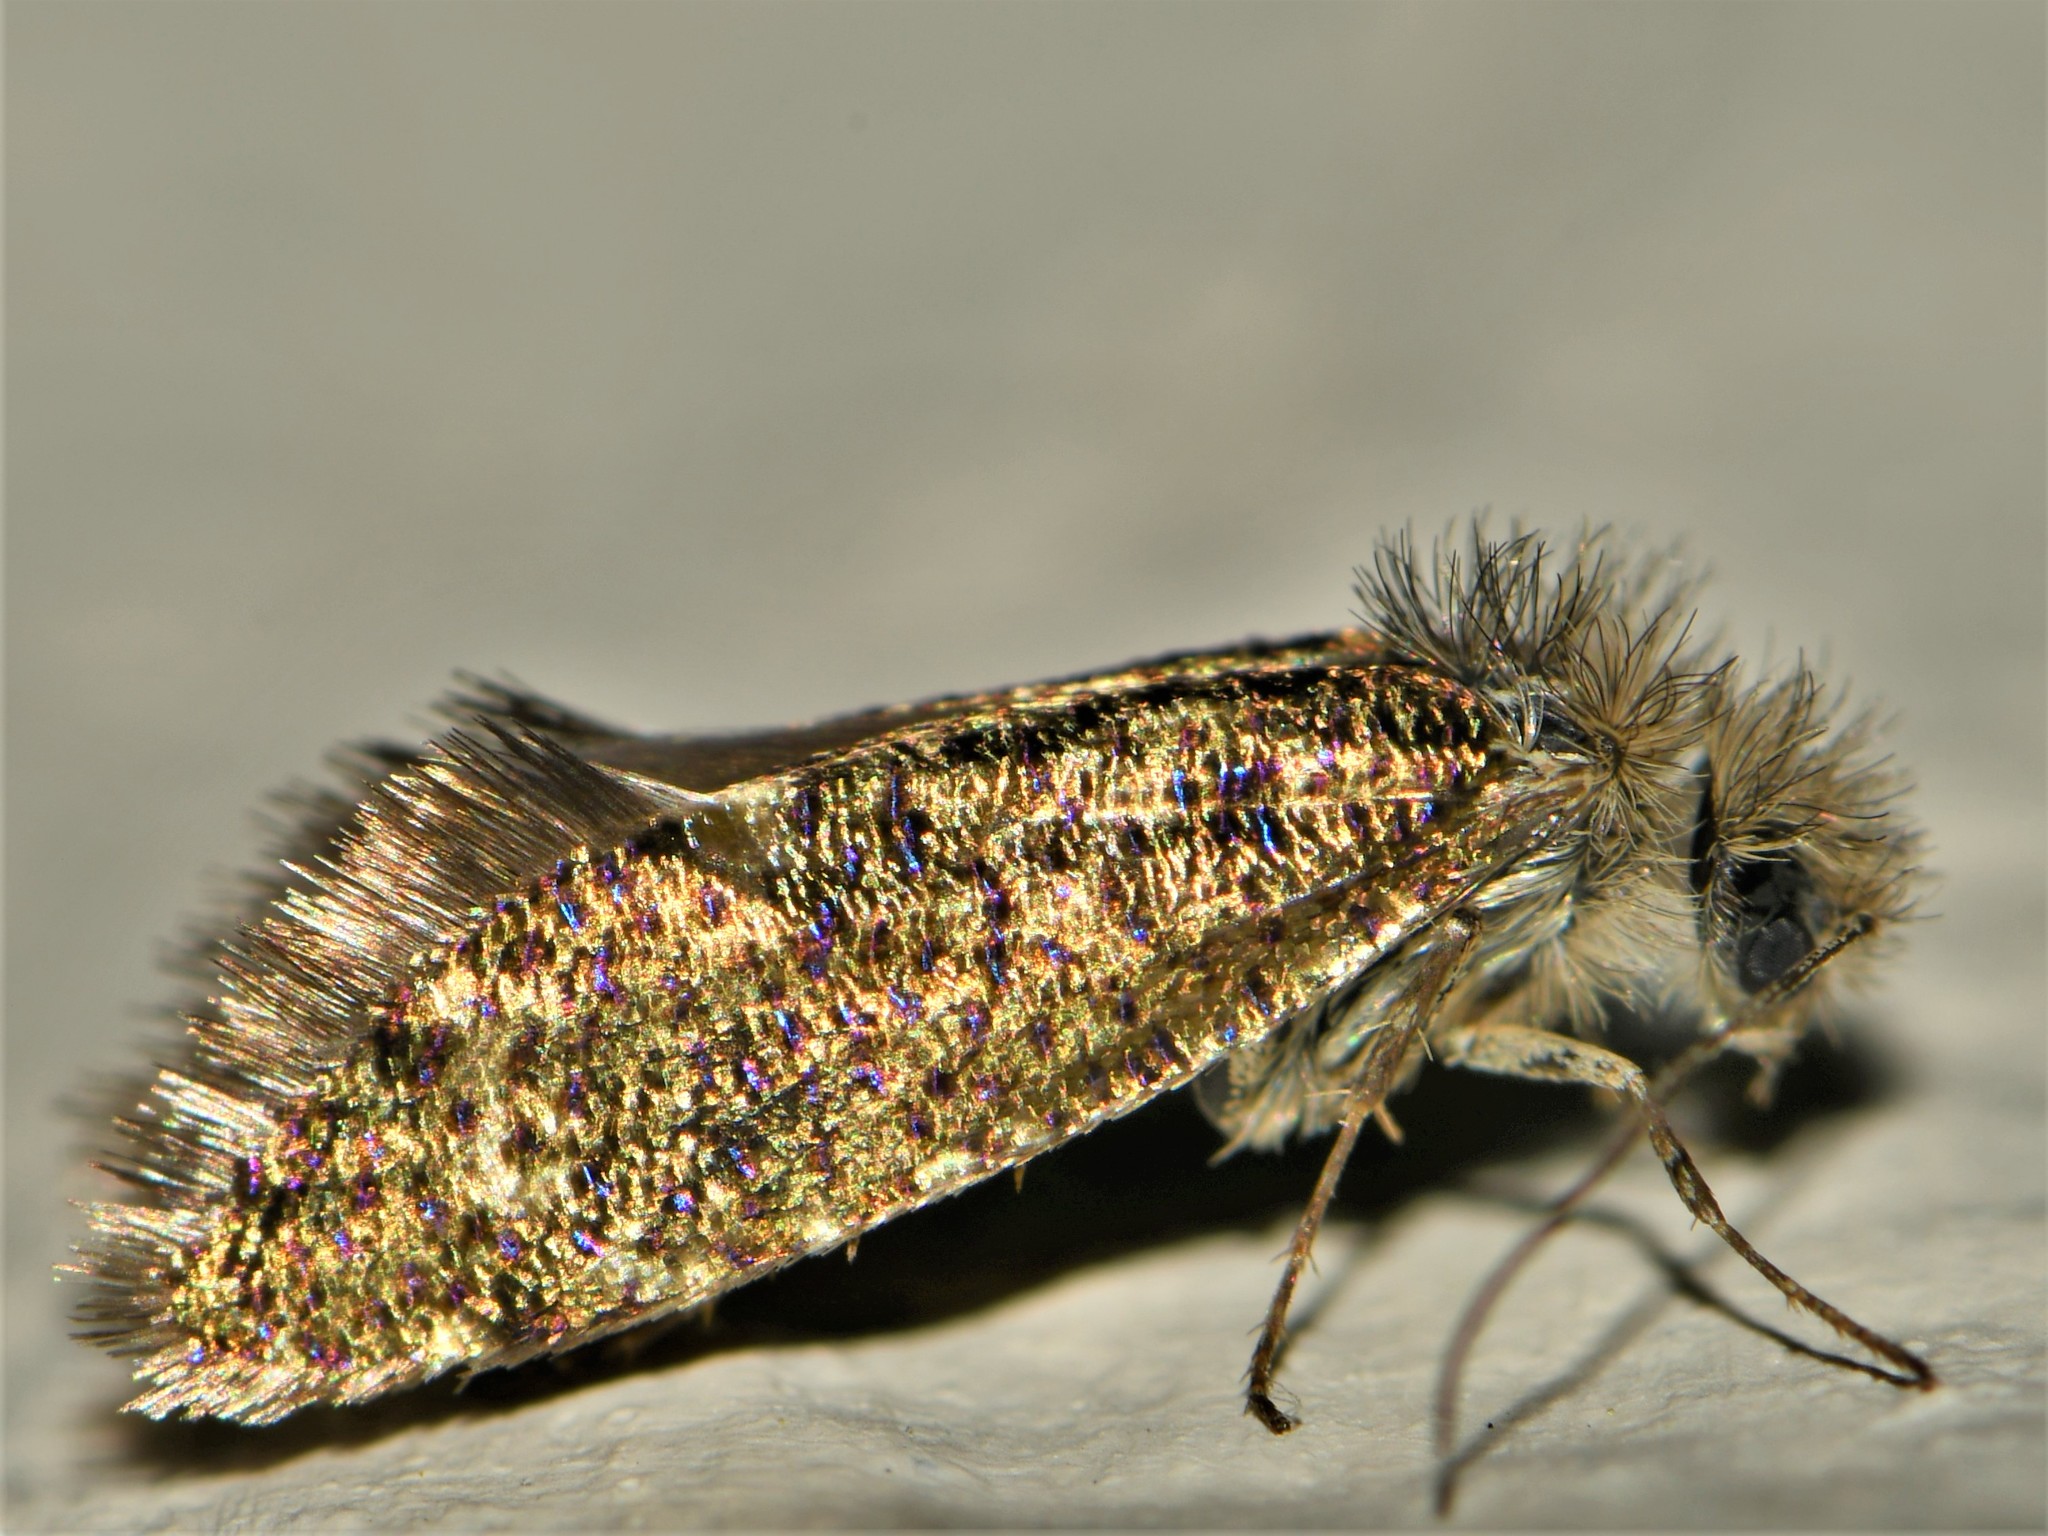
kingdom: Animalia
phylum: Arthropoda
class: Insecta
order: Lepidoptera
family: Eriocraniidae
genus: Dyseriocrania
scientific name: Dyseriocrania subpurpurella
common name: Common oak purple
